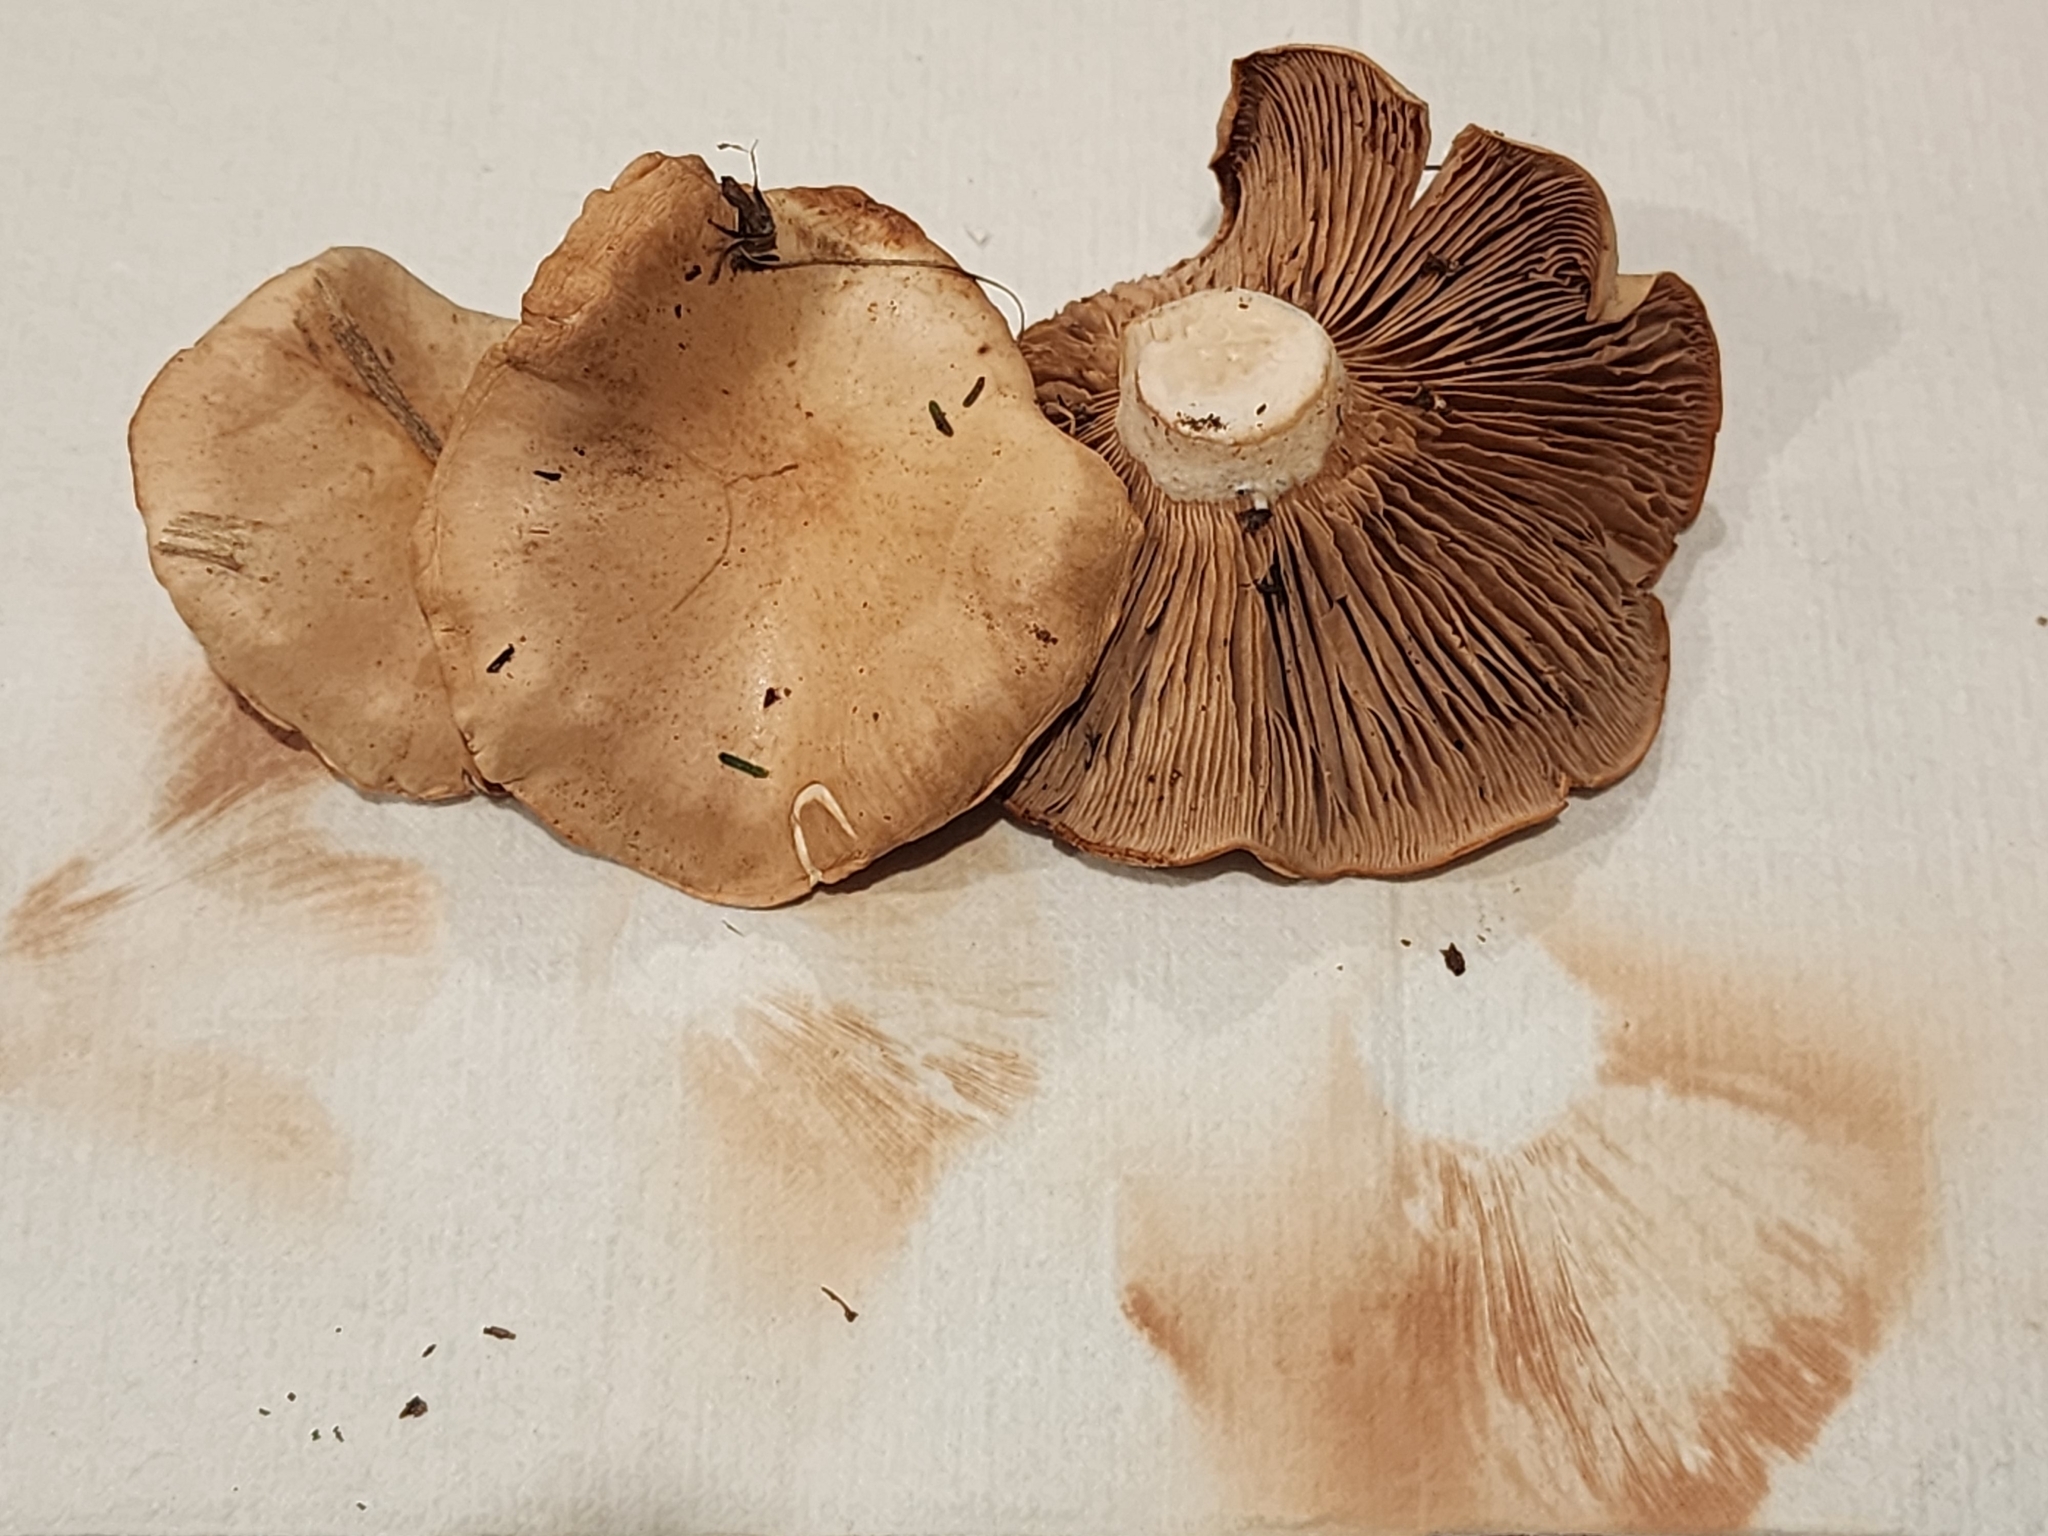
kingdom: Fungi
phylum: Basidiomycota
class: Agaricomycetes
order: Agaricales
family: Entolomataceae
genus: Clitopilus
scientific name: Clitopilus piperitus
